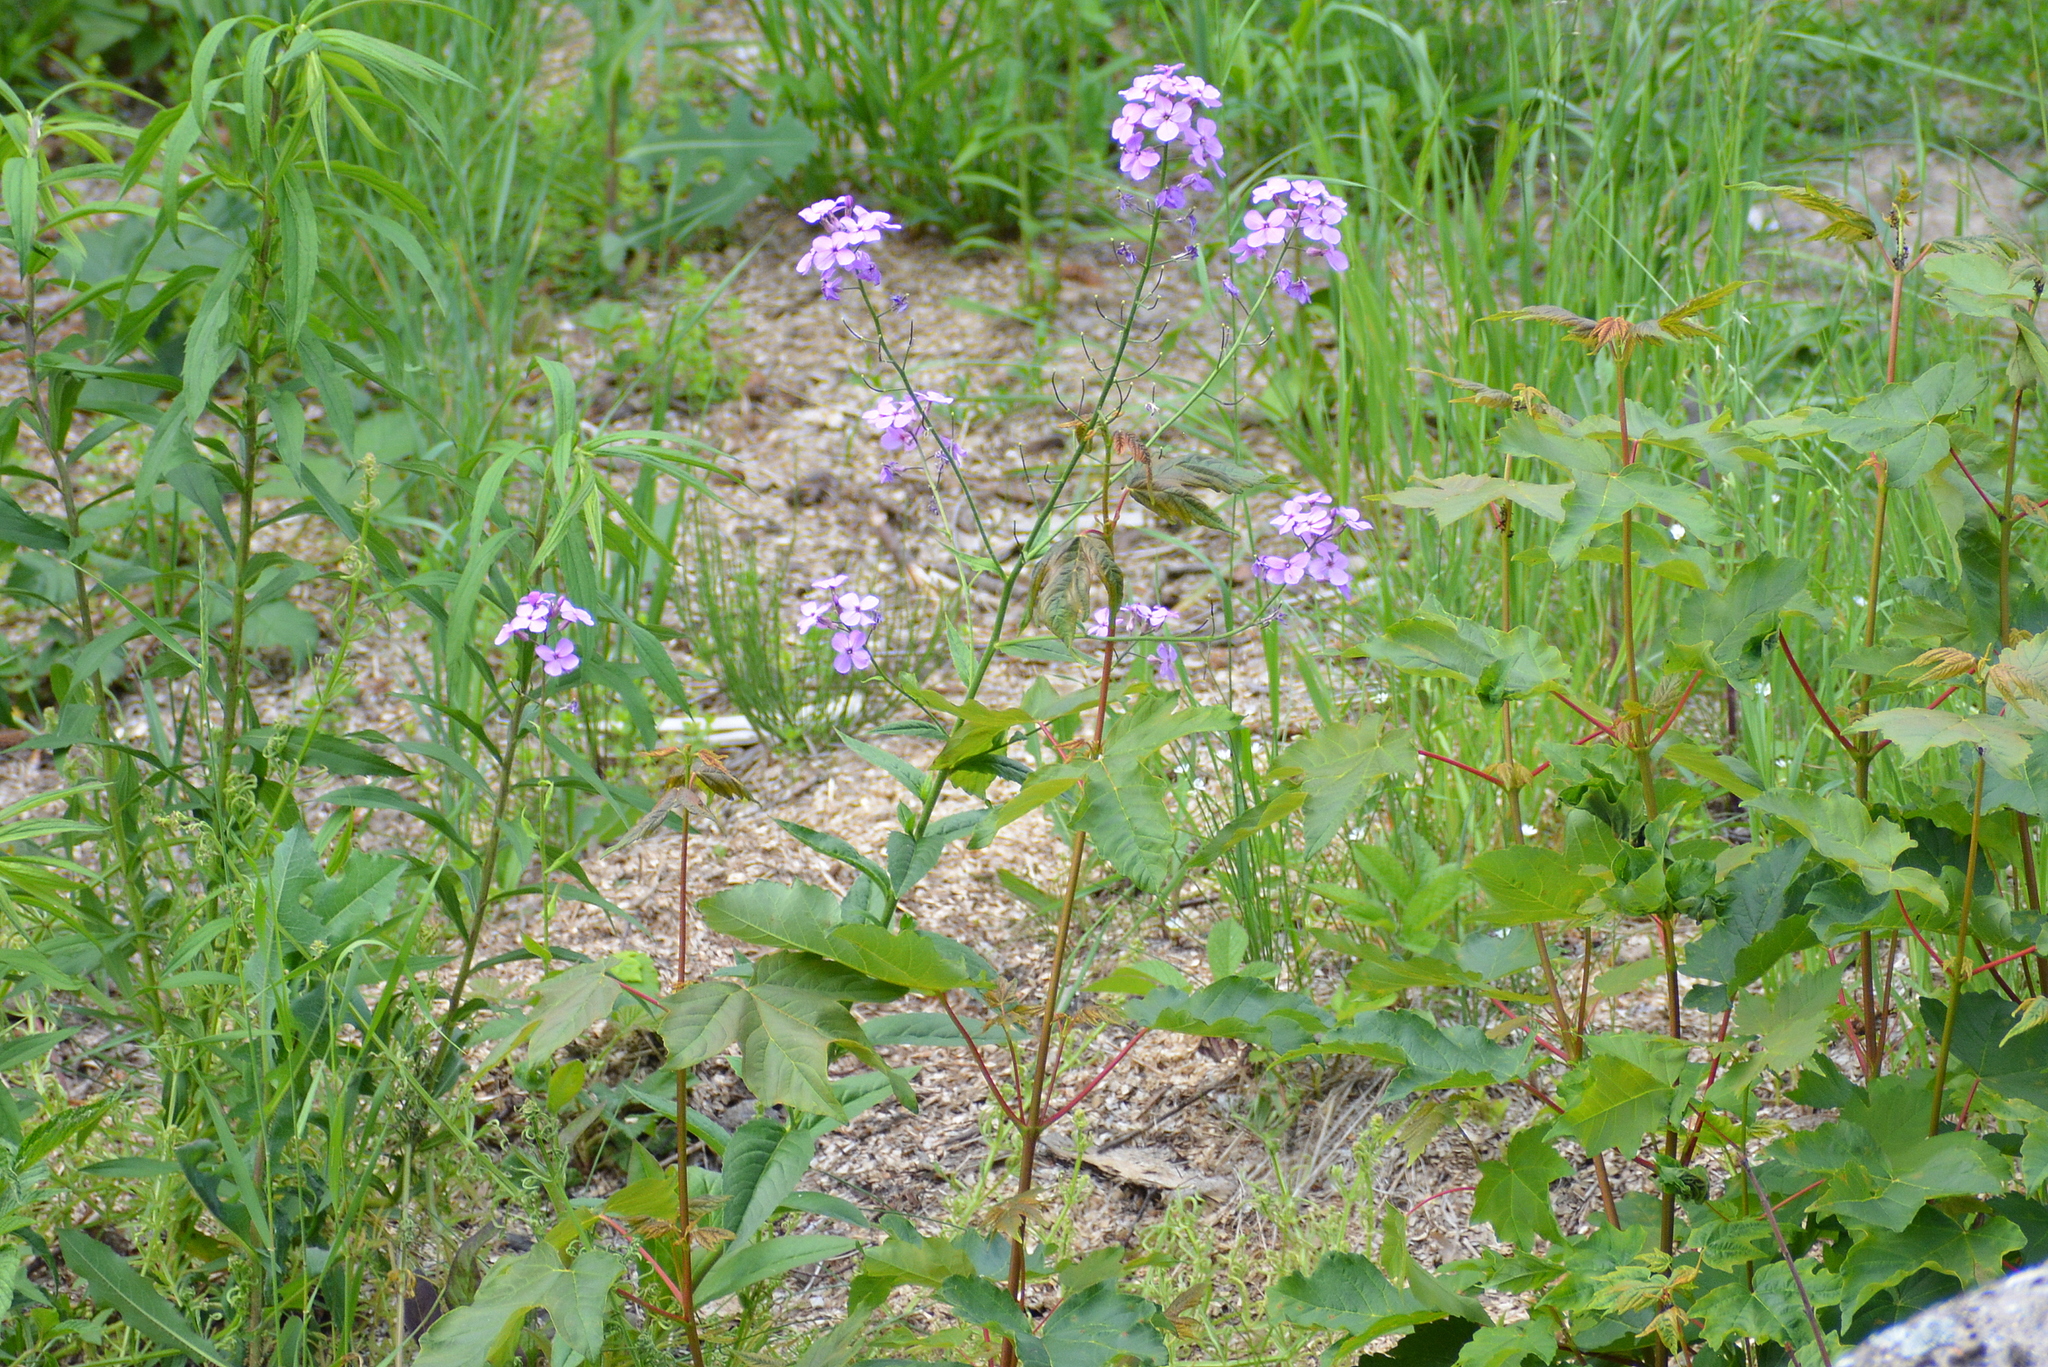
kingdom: Plantae
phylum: Tracheophyta
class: Magnoliopsida
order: Brassicales
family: Brassicaceae
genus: Hesperis
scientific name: Hesperis matronalis
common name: Dame's-violet
